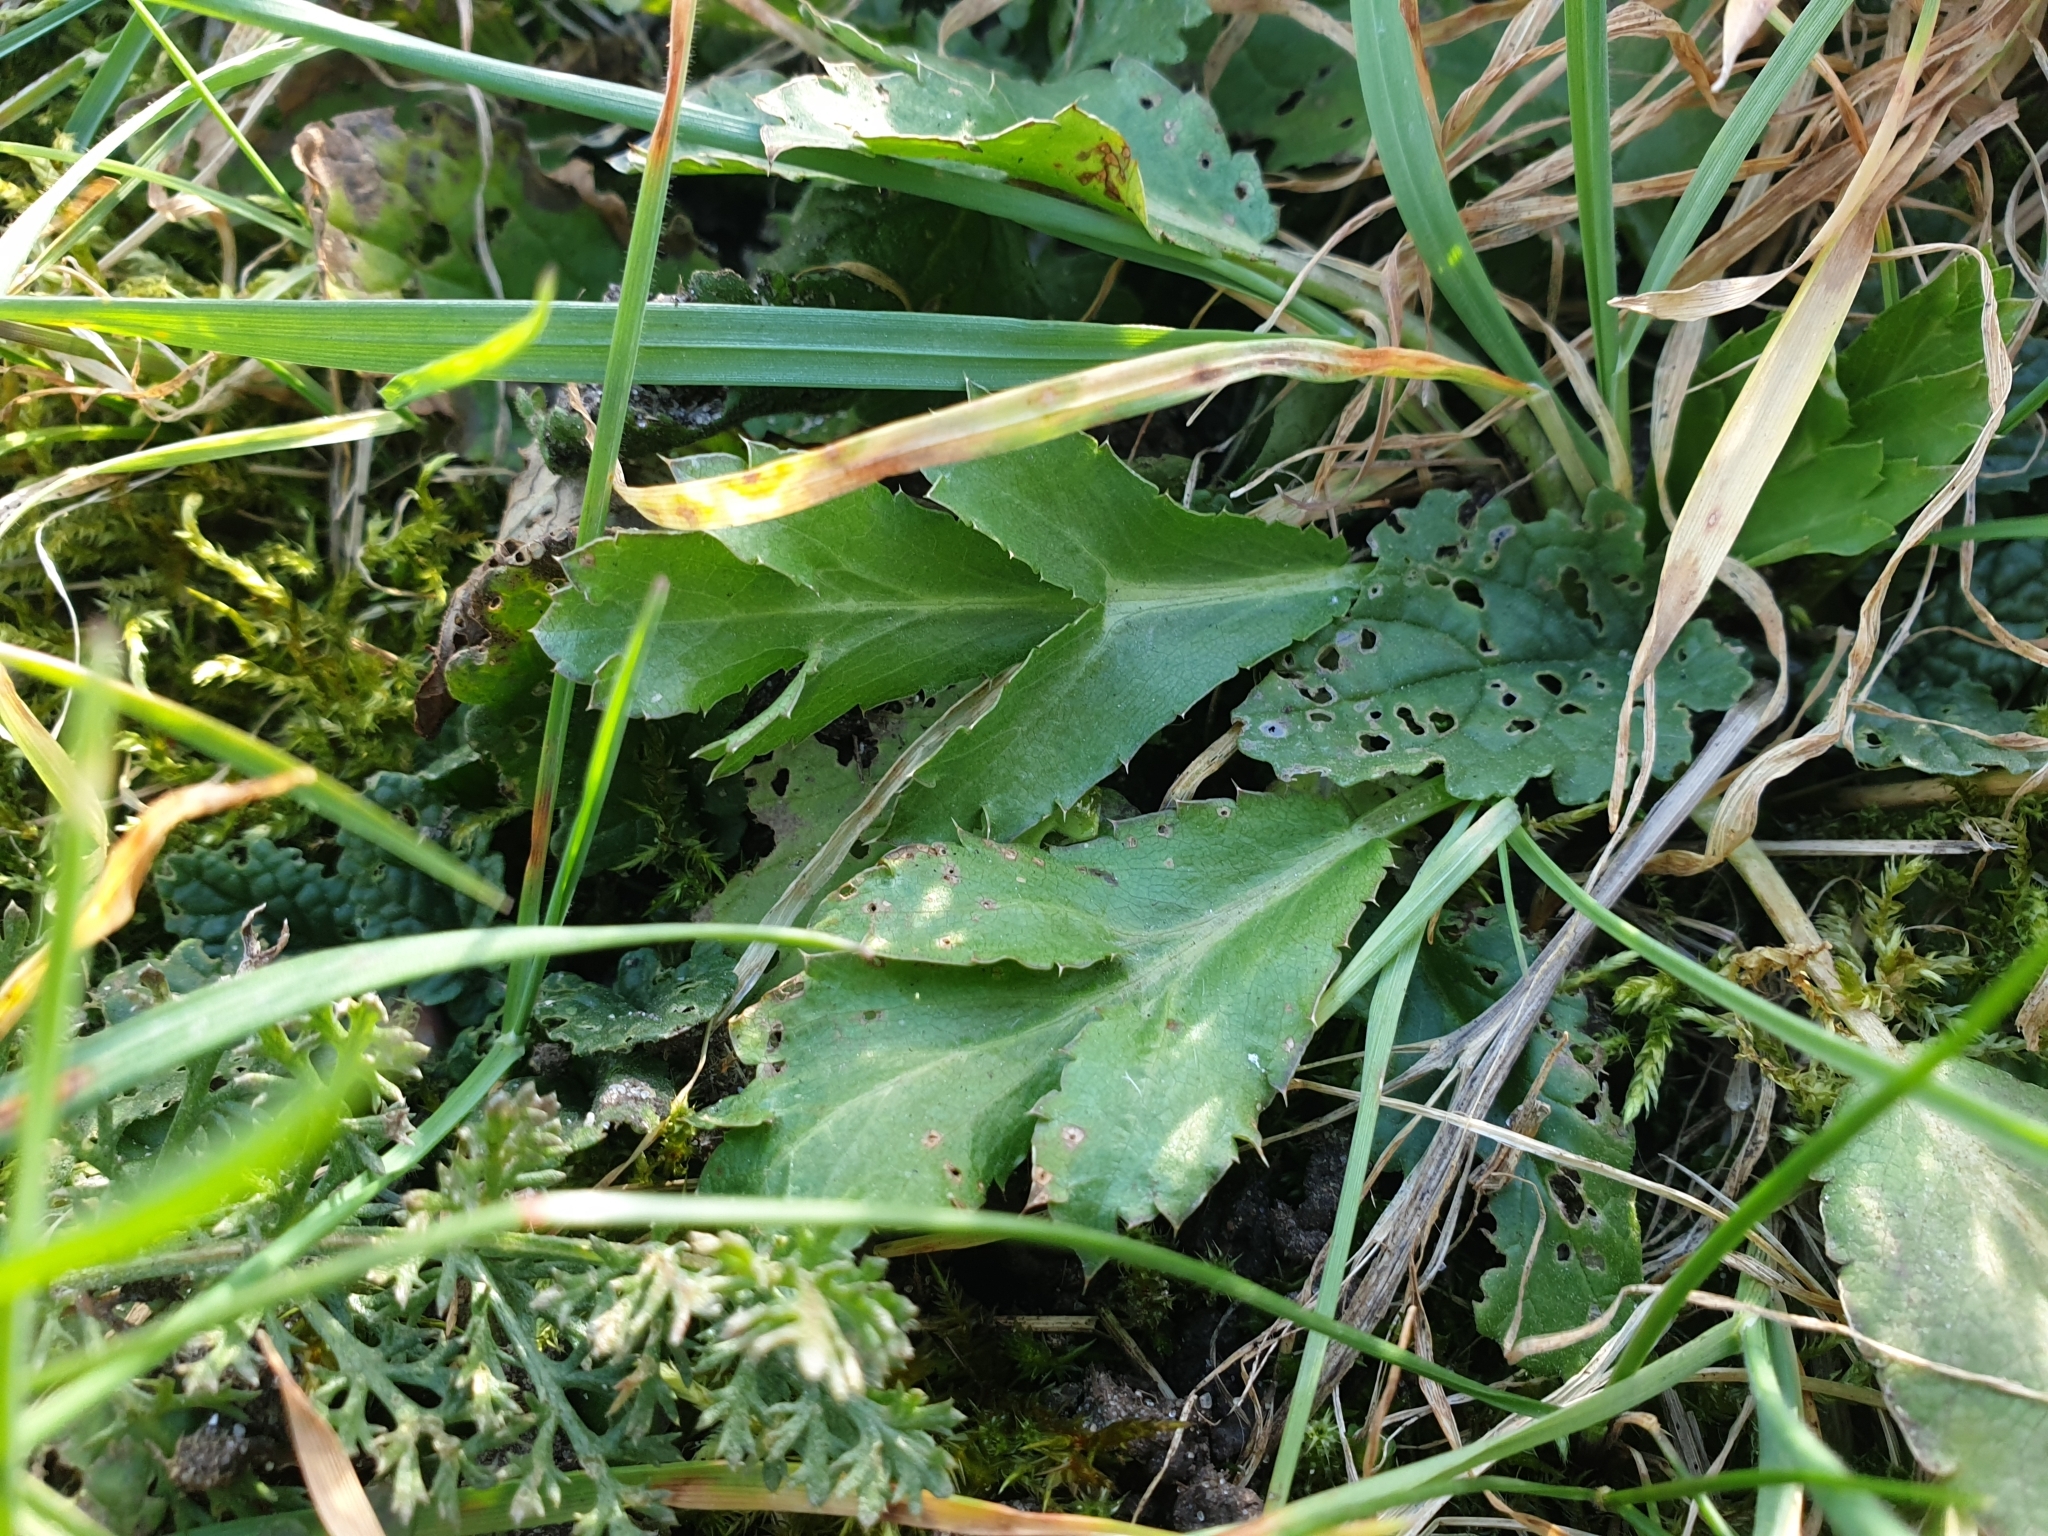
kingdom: Plantae
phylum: Tracheophyta
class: Magnoliopsida
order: Apiales
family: Apiaceae
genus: Eryngium
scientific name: Eryngium campestre
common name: Field eryngo
